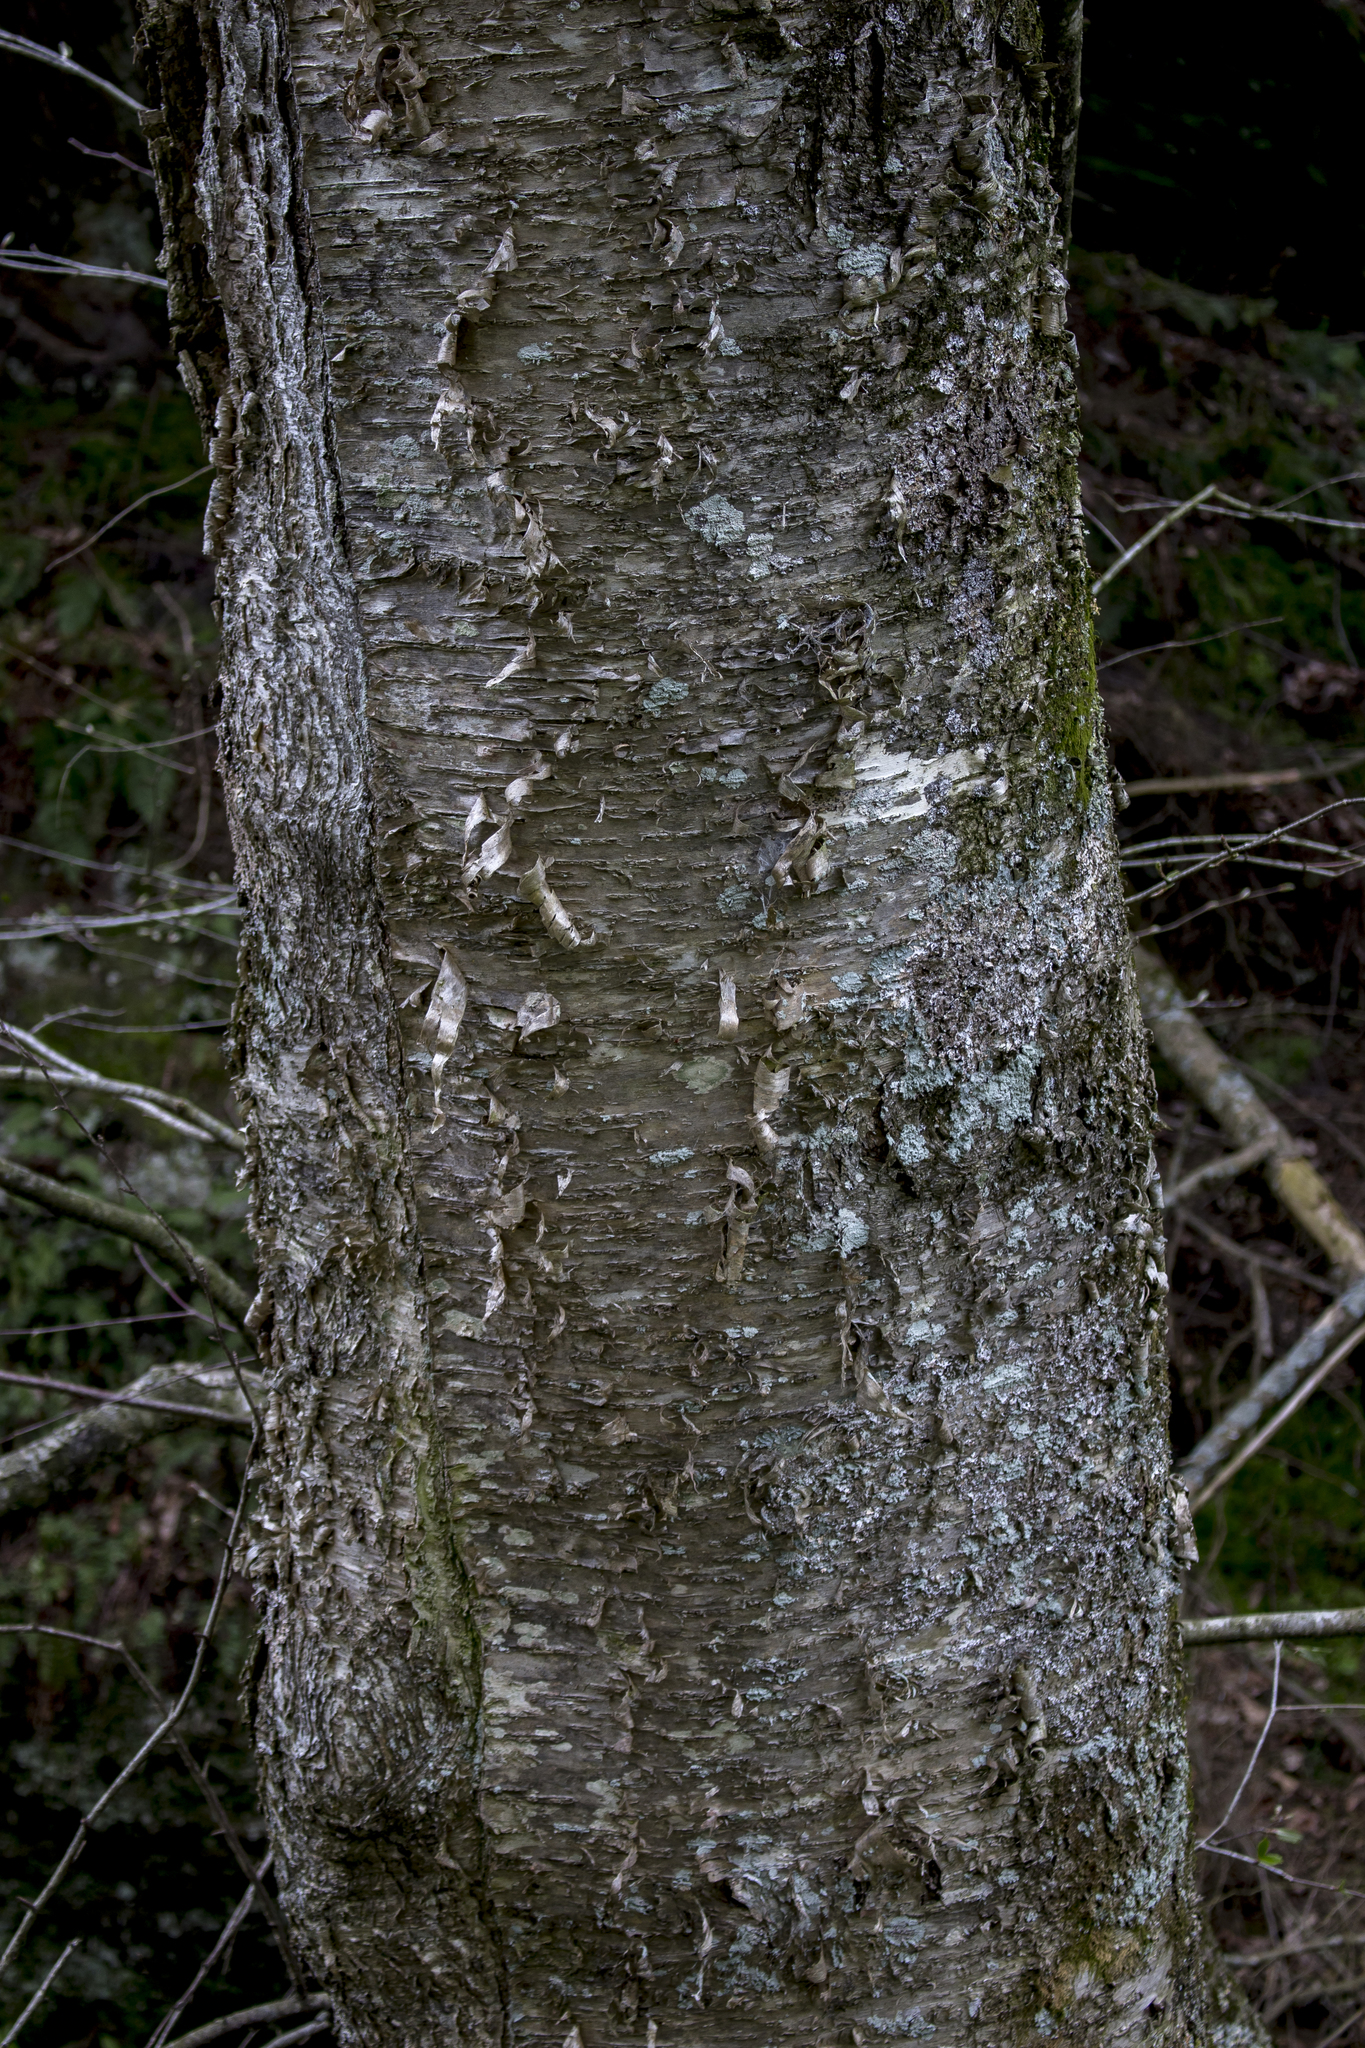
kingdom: Plantae
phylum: Tracheophyta
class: Magnoliopsida
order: Fagales
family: Betulaceae
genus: Betula
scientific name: Betula alleghaniensis
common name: Yellow birch
